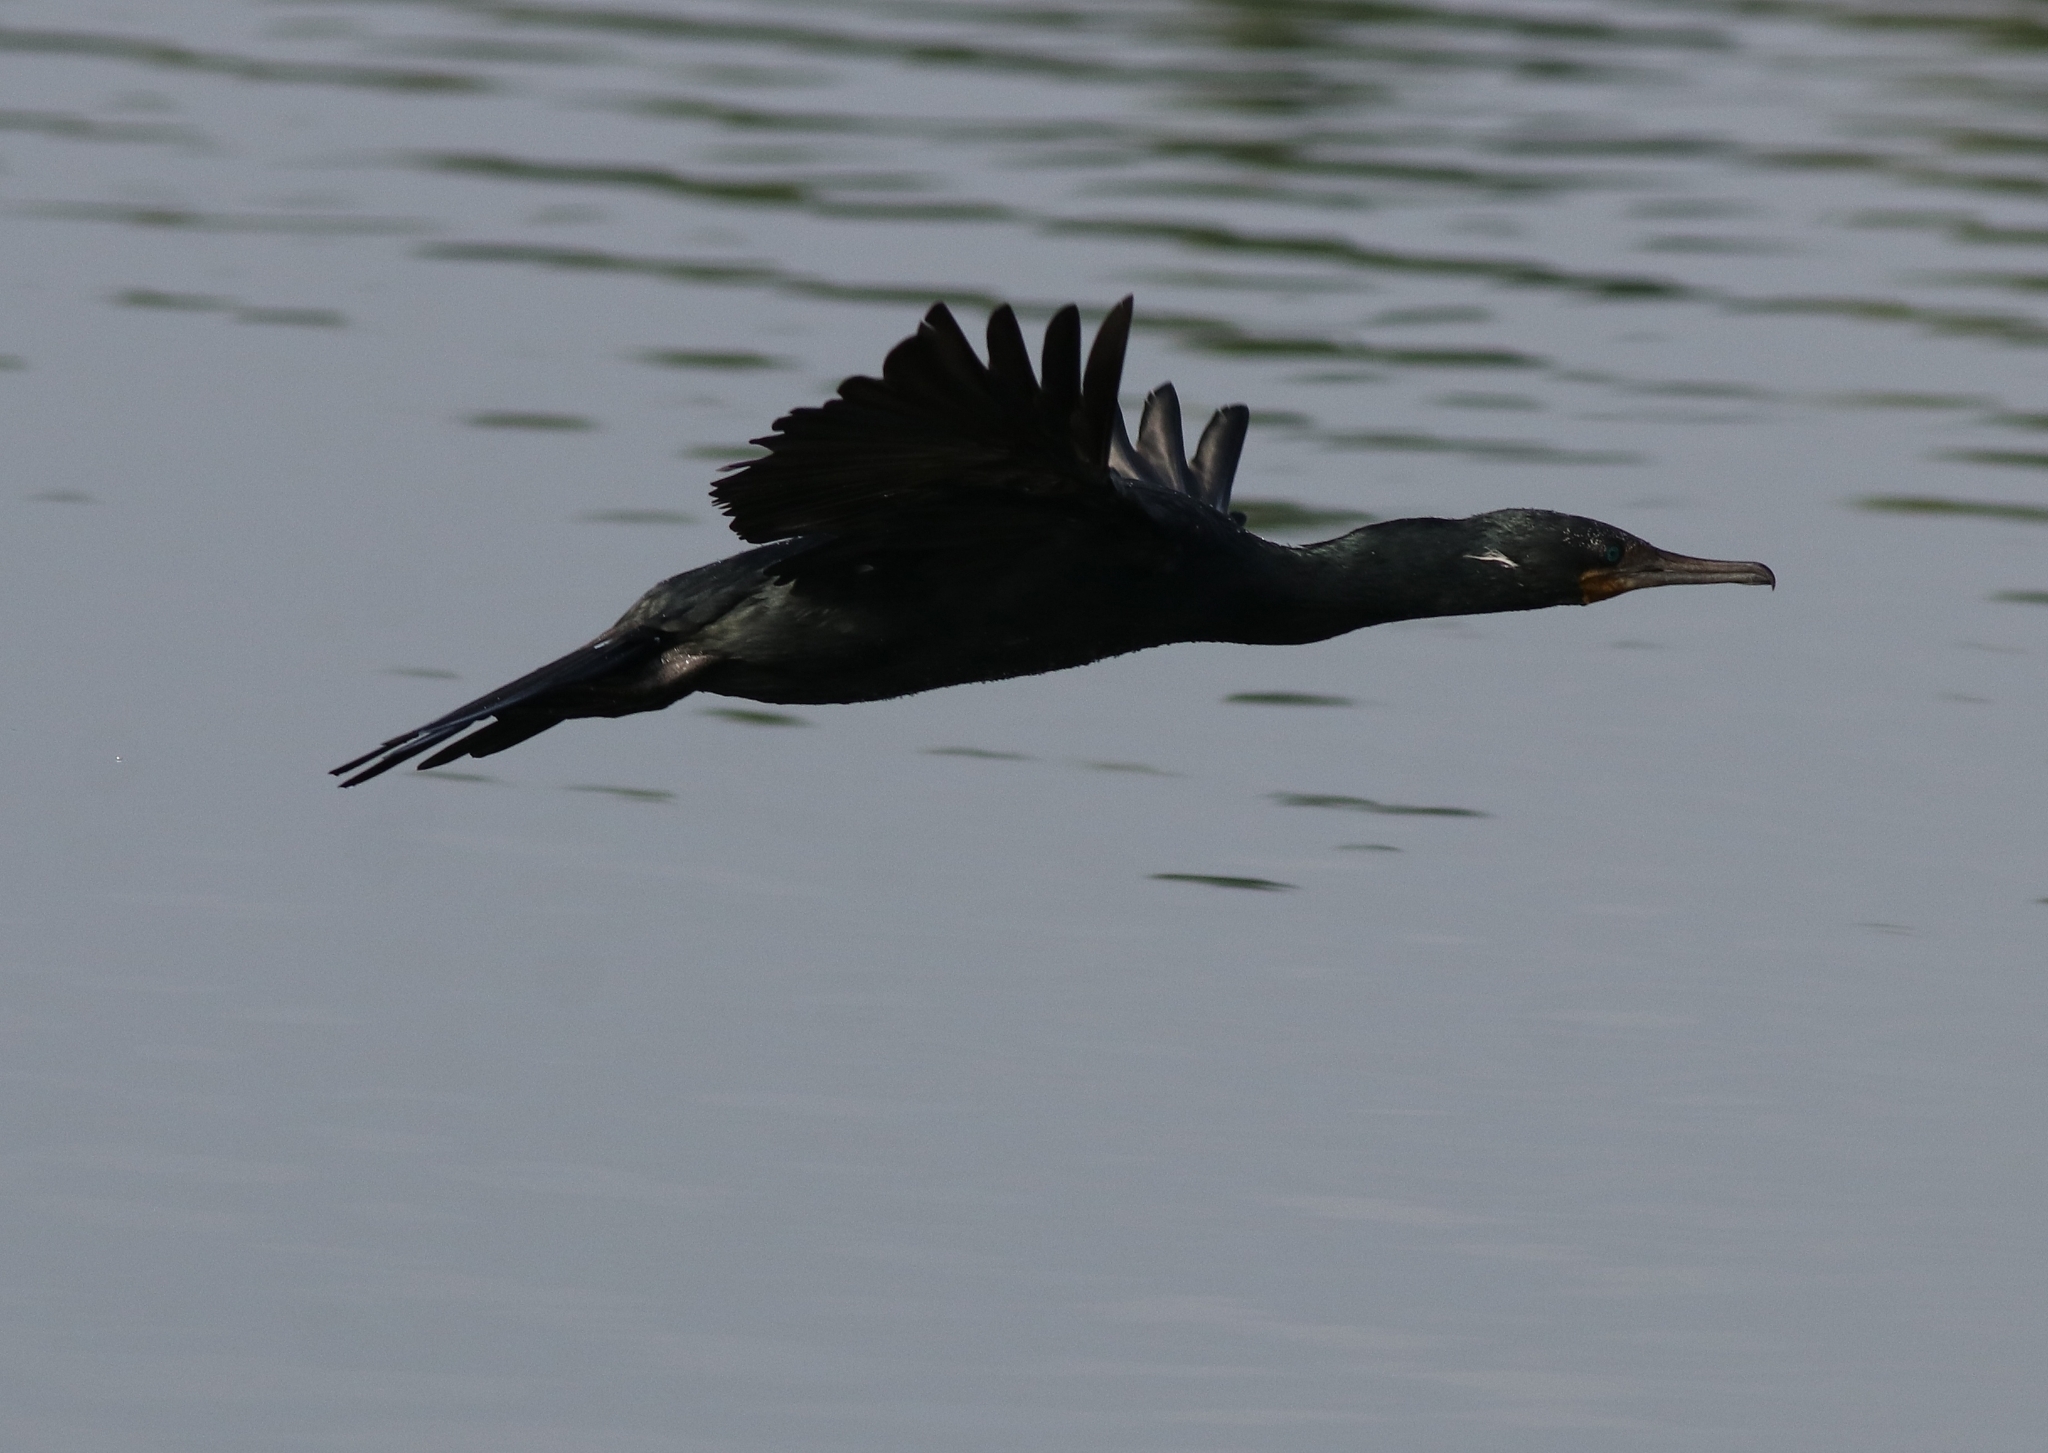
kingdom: Animalia
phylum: Chordata
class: Aves
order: Suliformes
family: Phalacrocoracidae
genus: Phalacrocorax
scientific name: Phalacrocorax fuscicollis
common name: Indian cormorant
